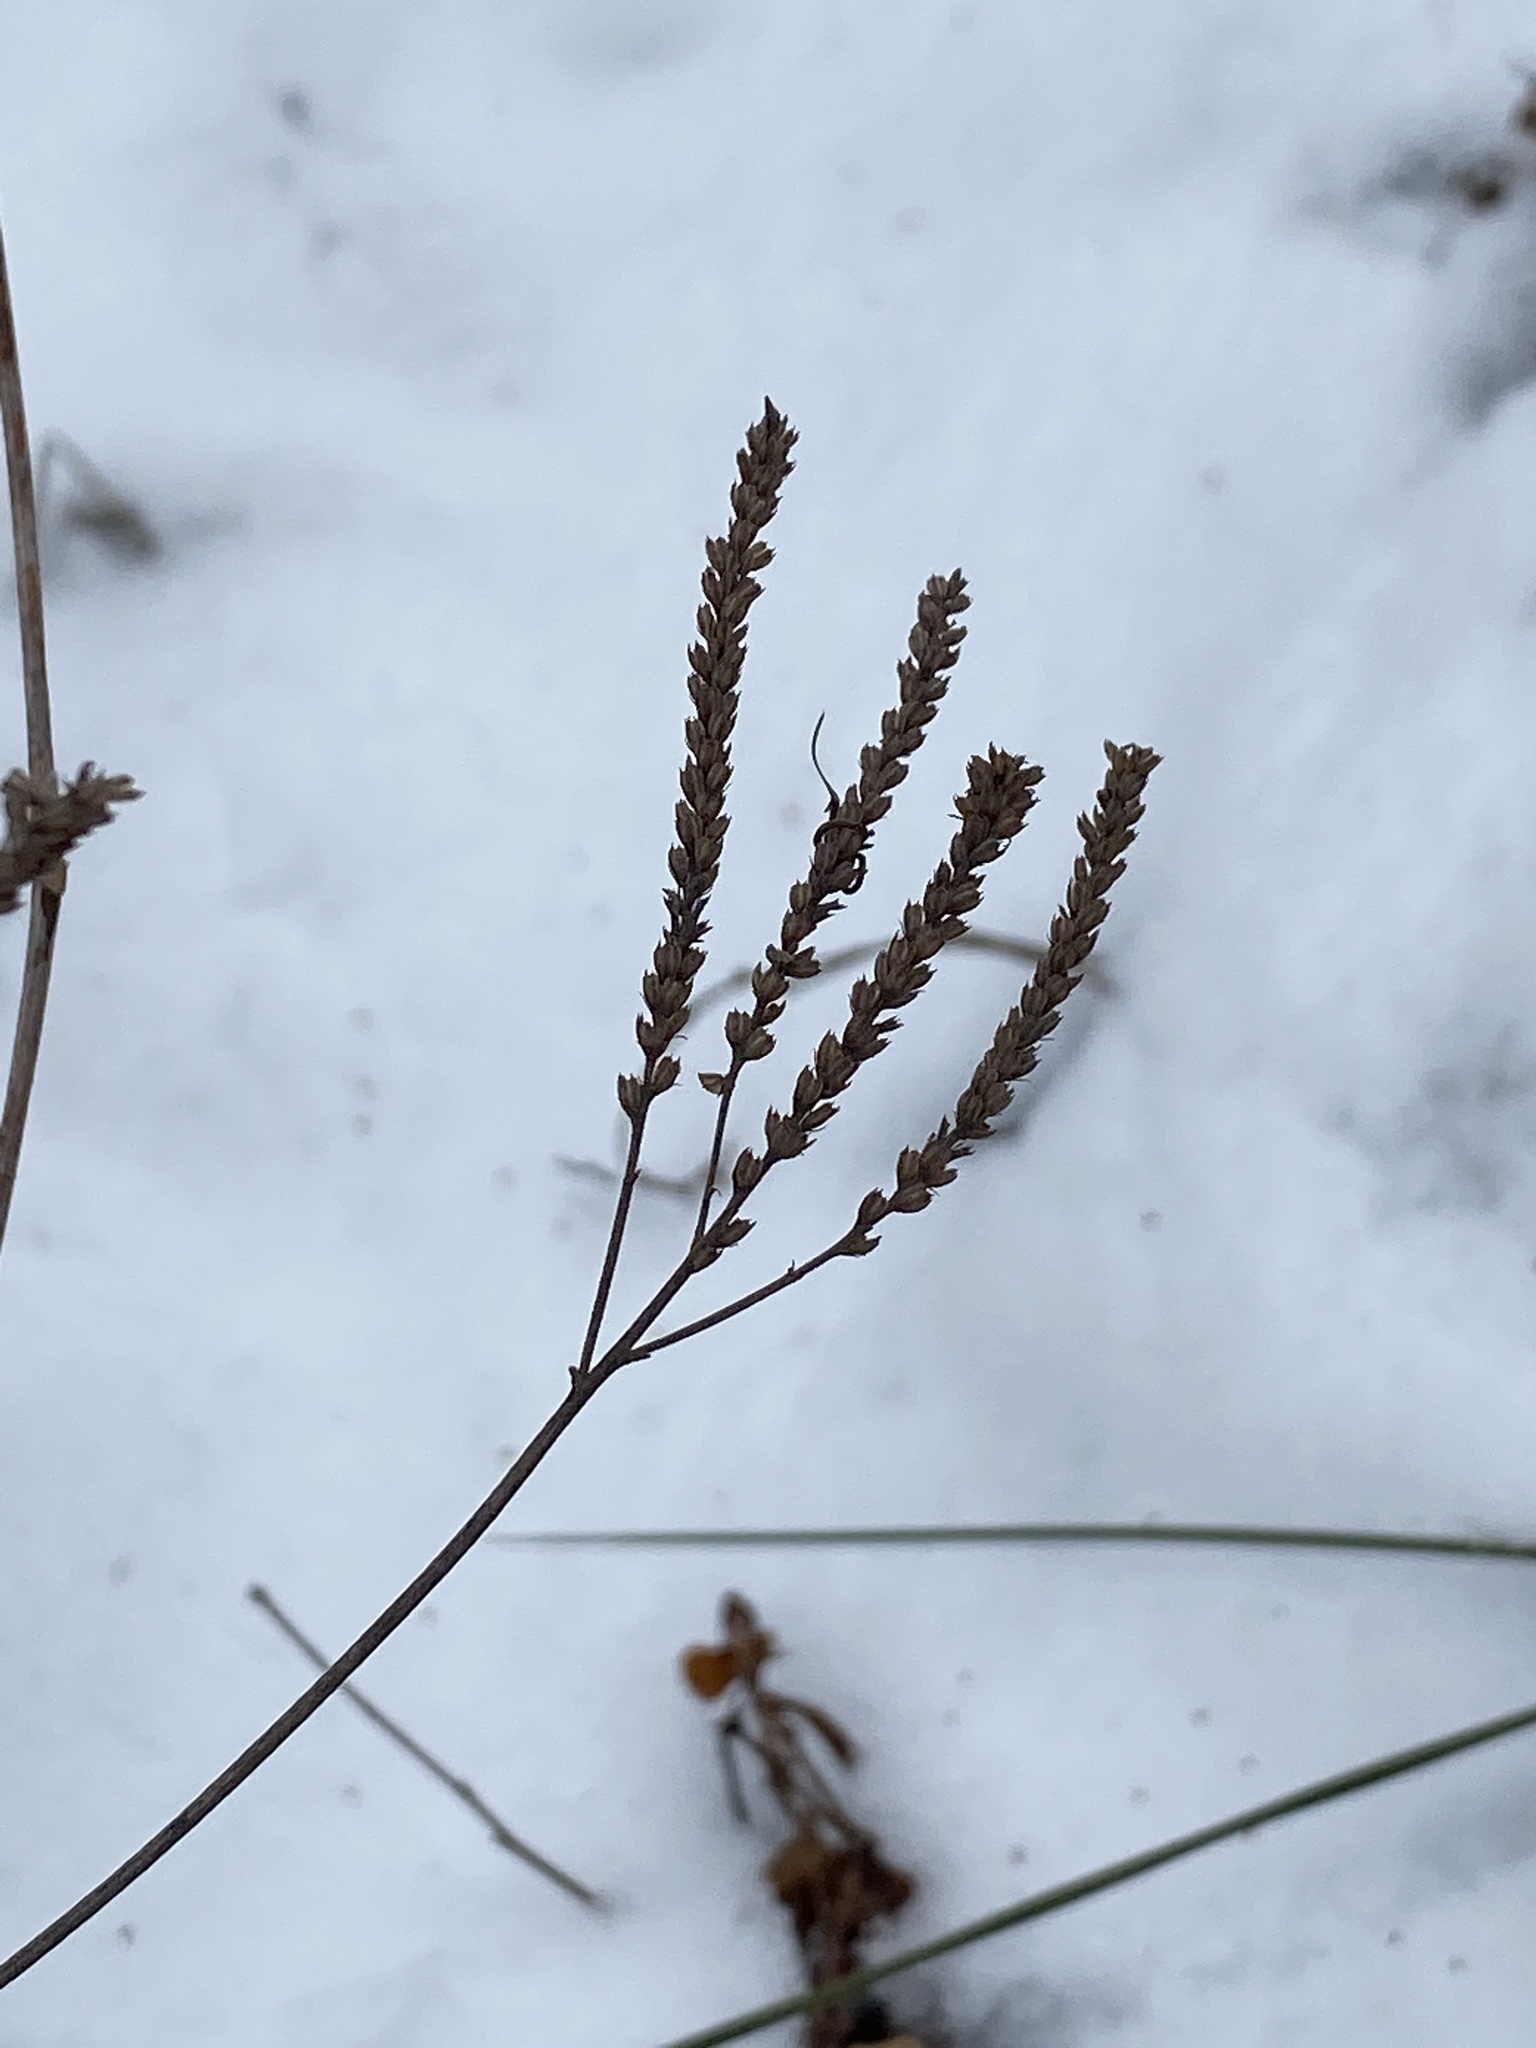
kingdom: Plantae
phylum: Tracheophyta
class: Magnoliopsida
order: Lamiales
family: Verbenaceae
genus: Verbena
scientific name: Verbena hastata
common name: American blue vervain
